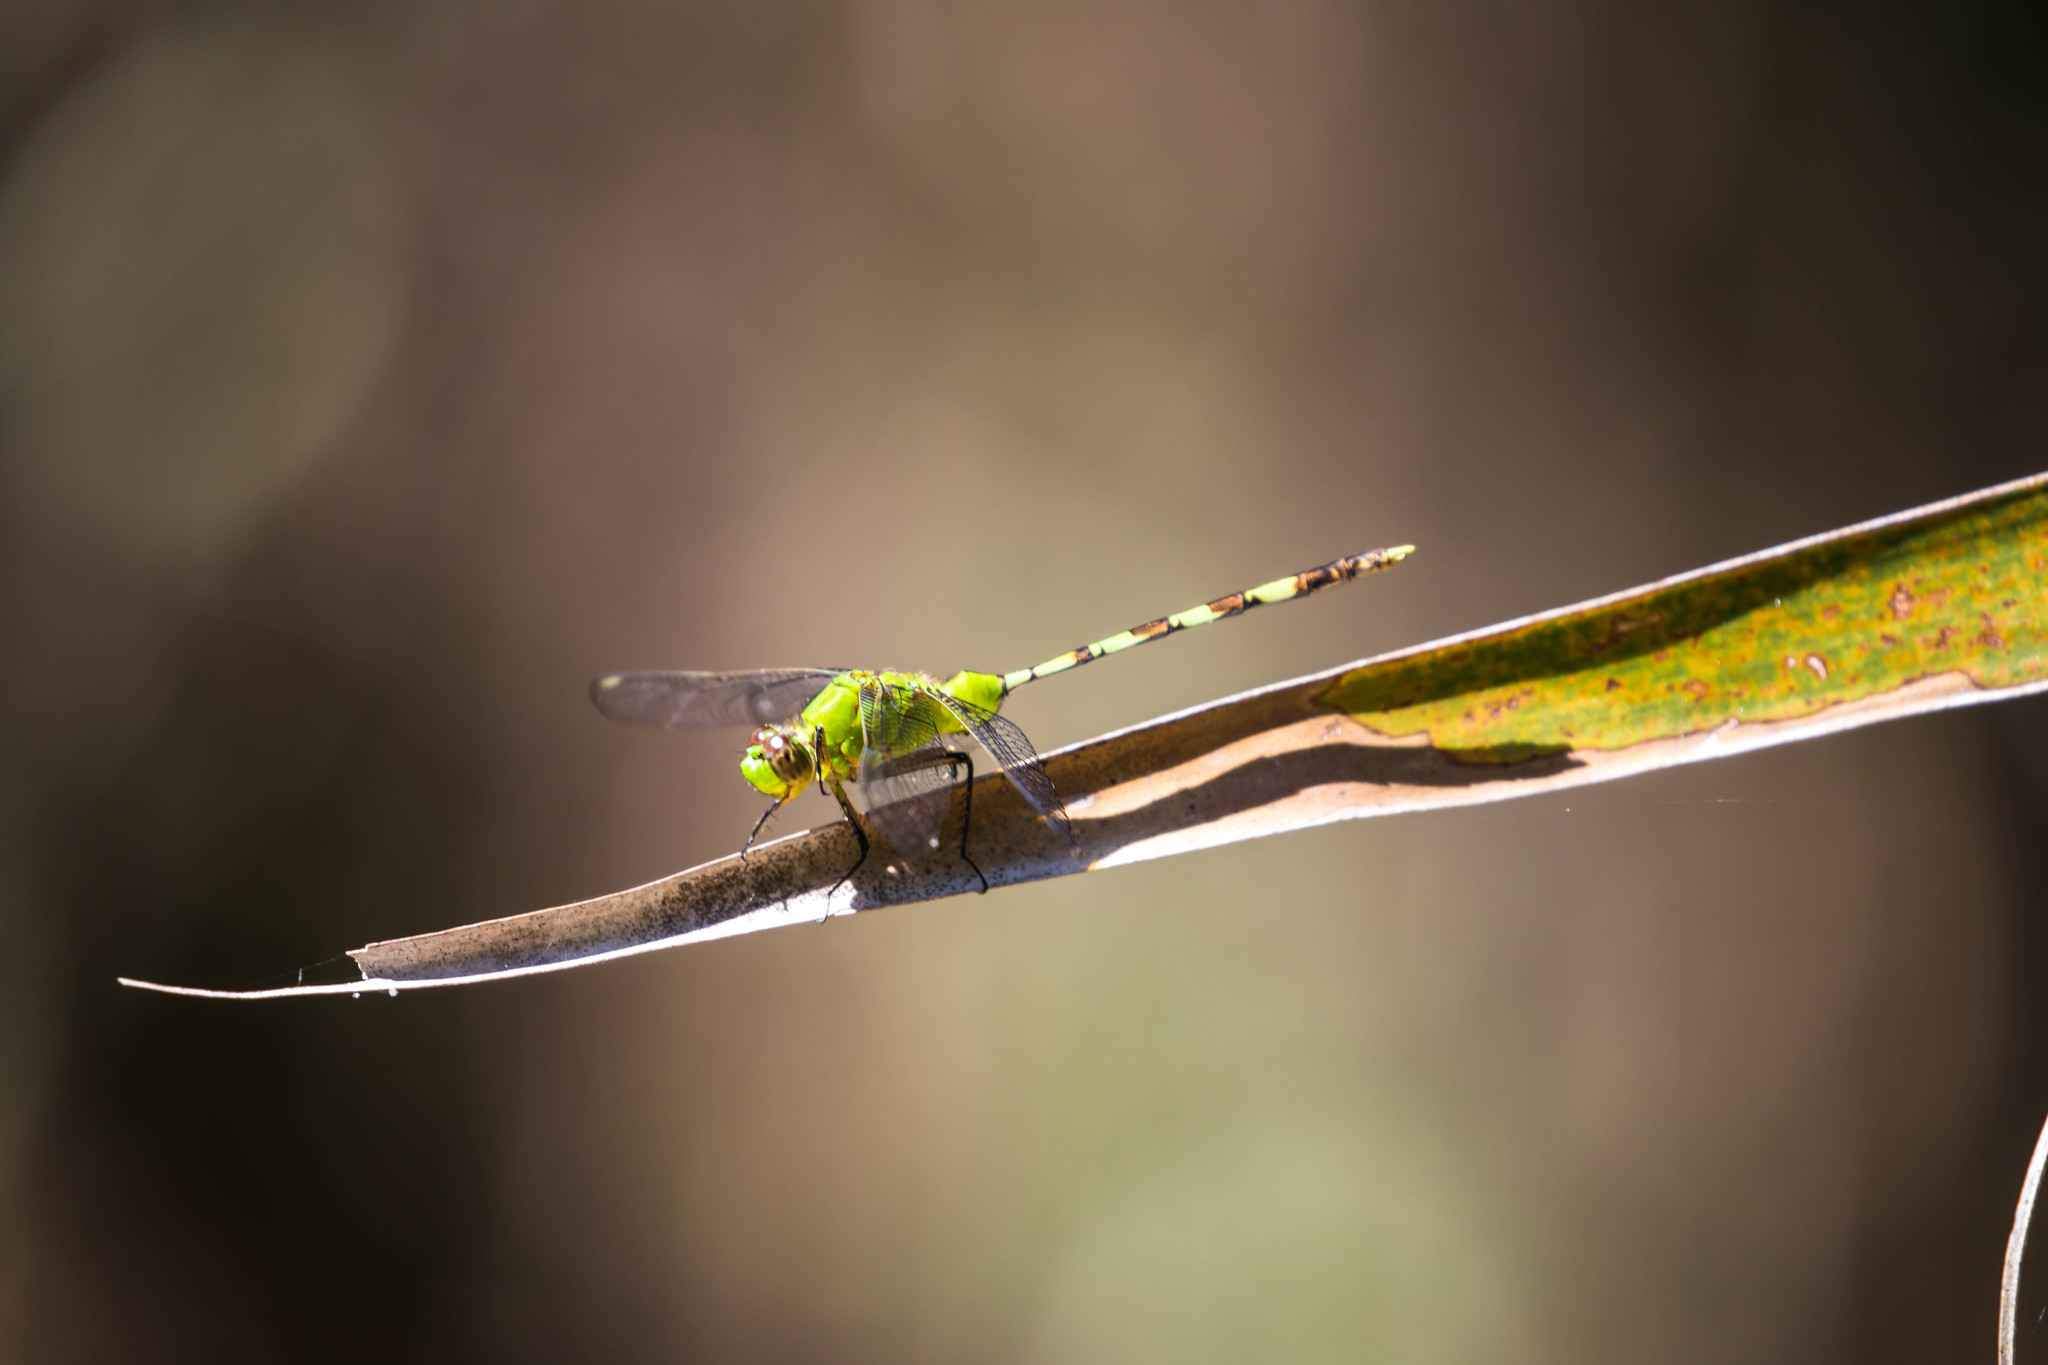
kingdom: Animalia
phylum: Arthropoda
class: Insecta
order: Odonata
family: Libellulidae
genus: Erythemis
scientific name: Erythemis vesiculosa
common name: Great pondhawk
